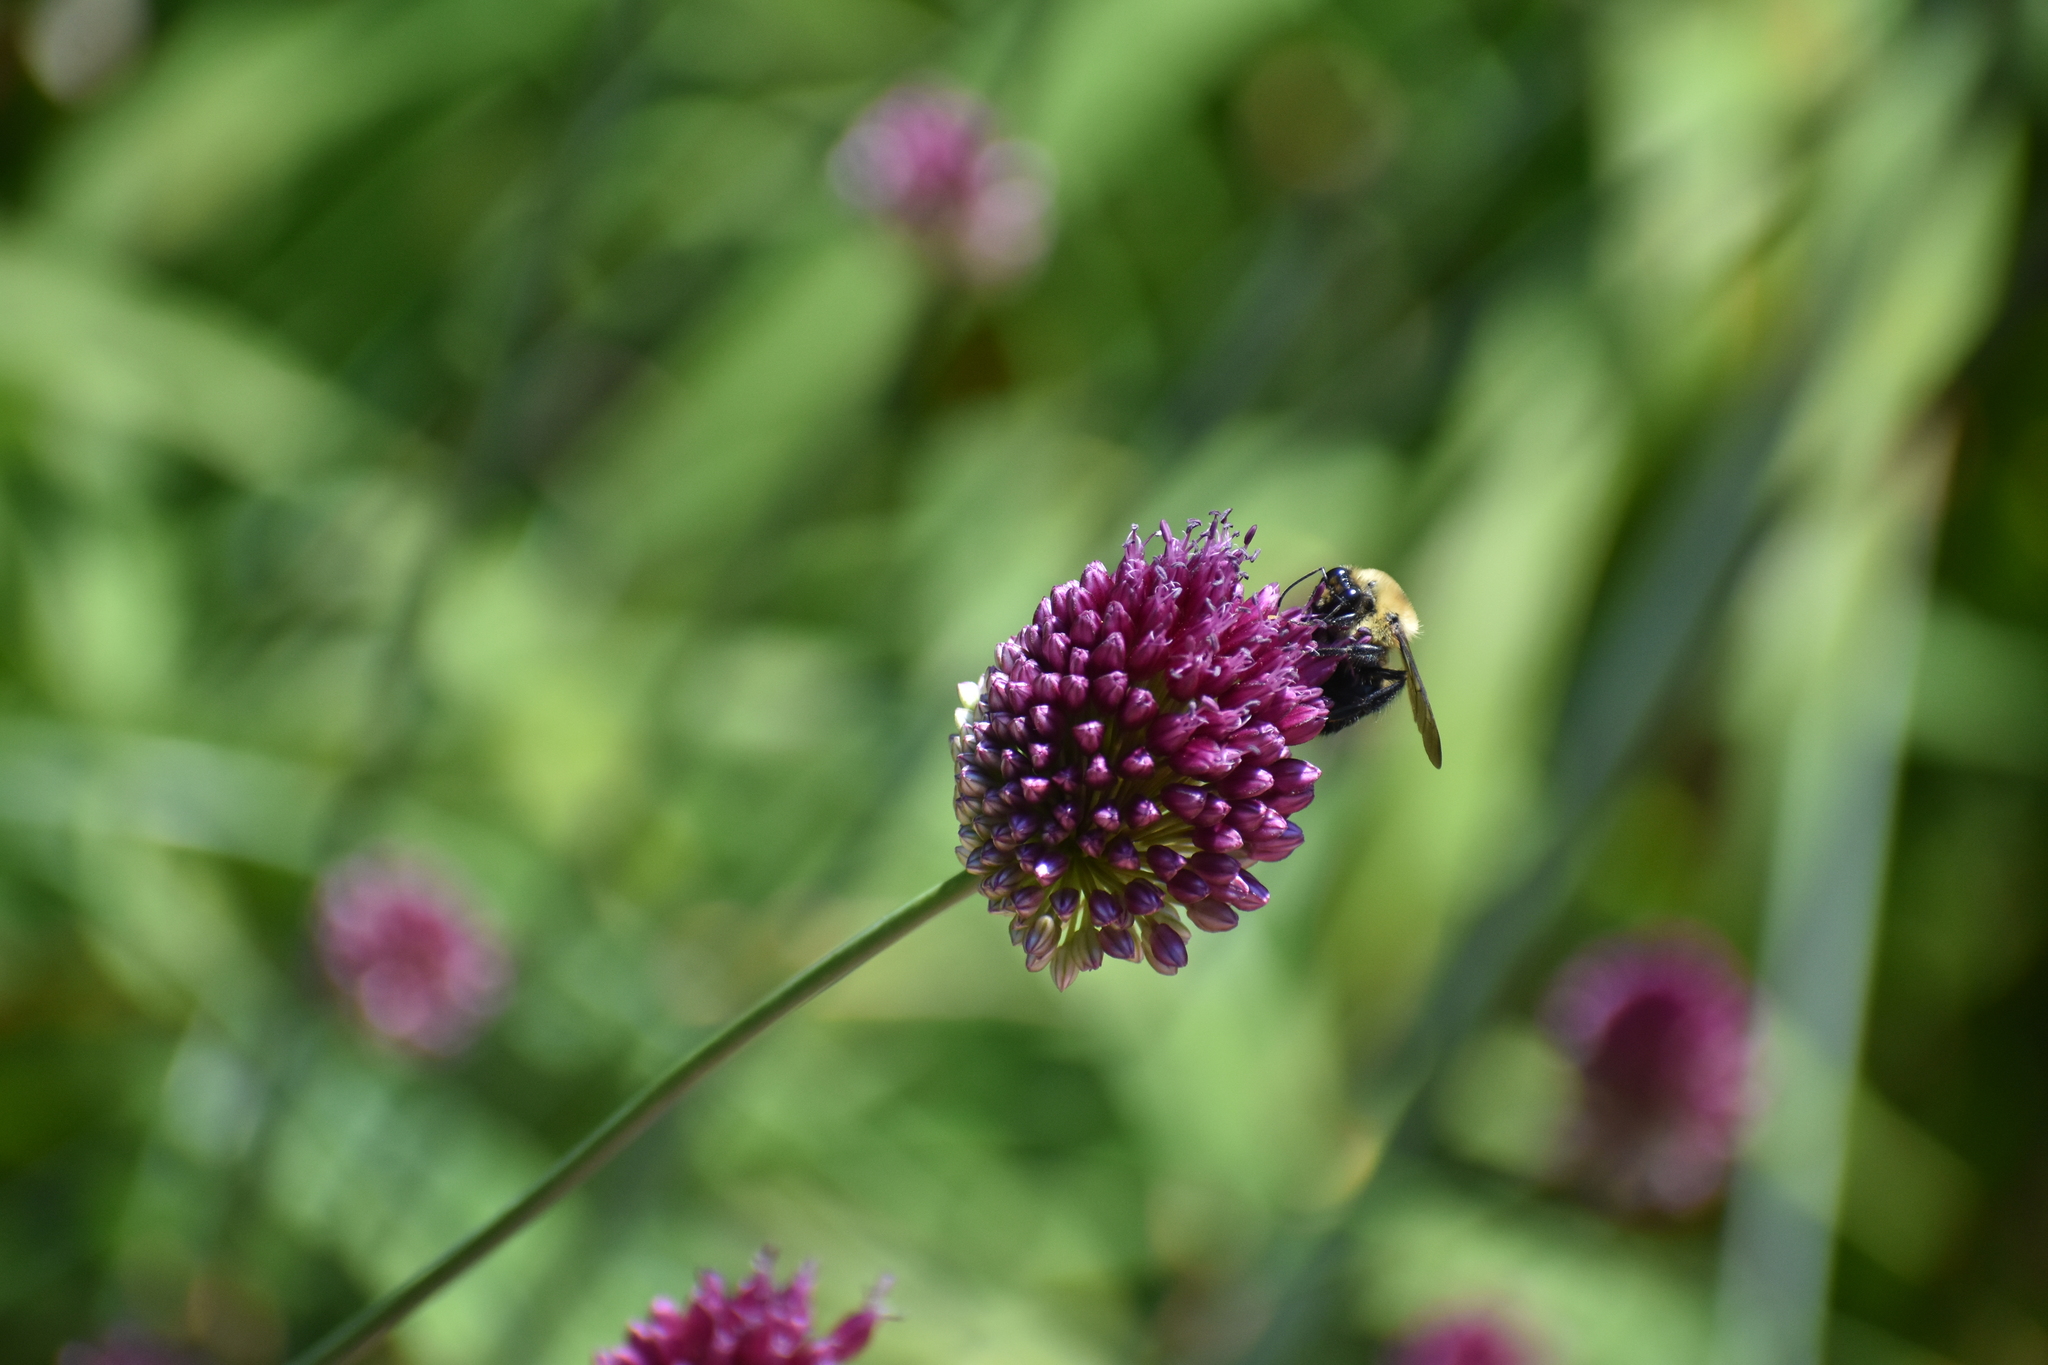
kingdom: Animalia
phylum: Arthropoda
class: Insecta
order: Hymenoptera
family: Apidae
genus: Bombus
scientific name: Bombus griseocollis
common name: Brown-belted bumble bee
